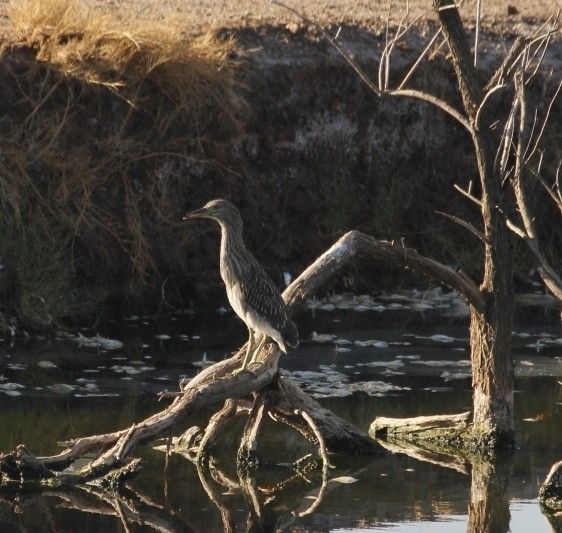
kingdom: Animalia
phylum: Chordata
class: Aves
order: Pelecaniformes
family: Ardeidae
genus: Nycticorax
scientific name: Nycticorax nycticorax
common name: Black-crowned night heron
